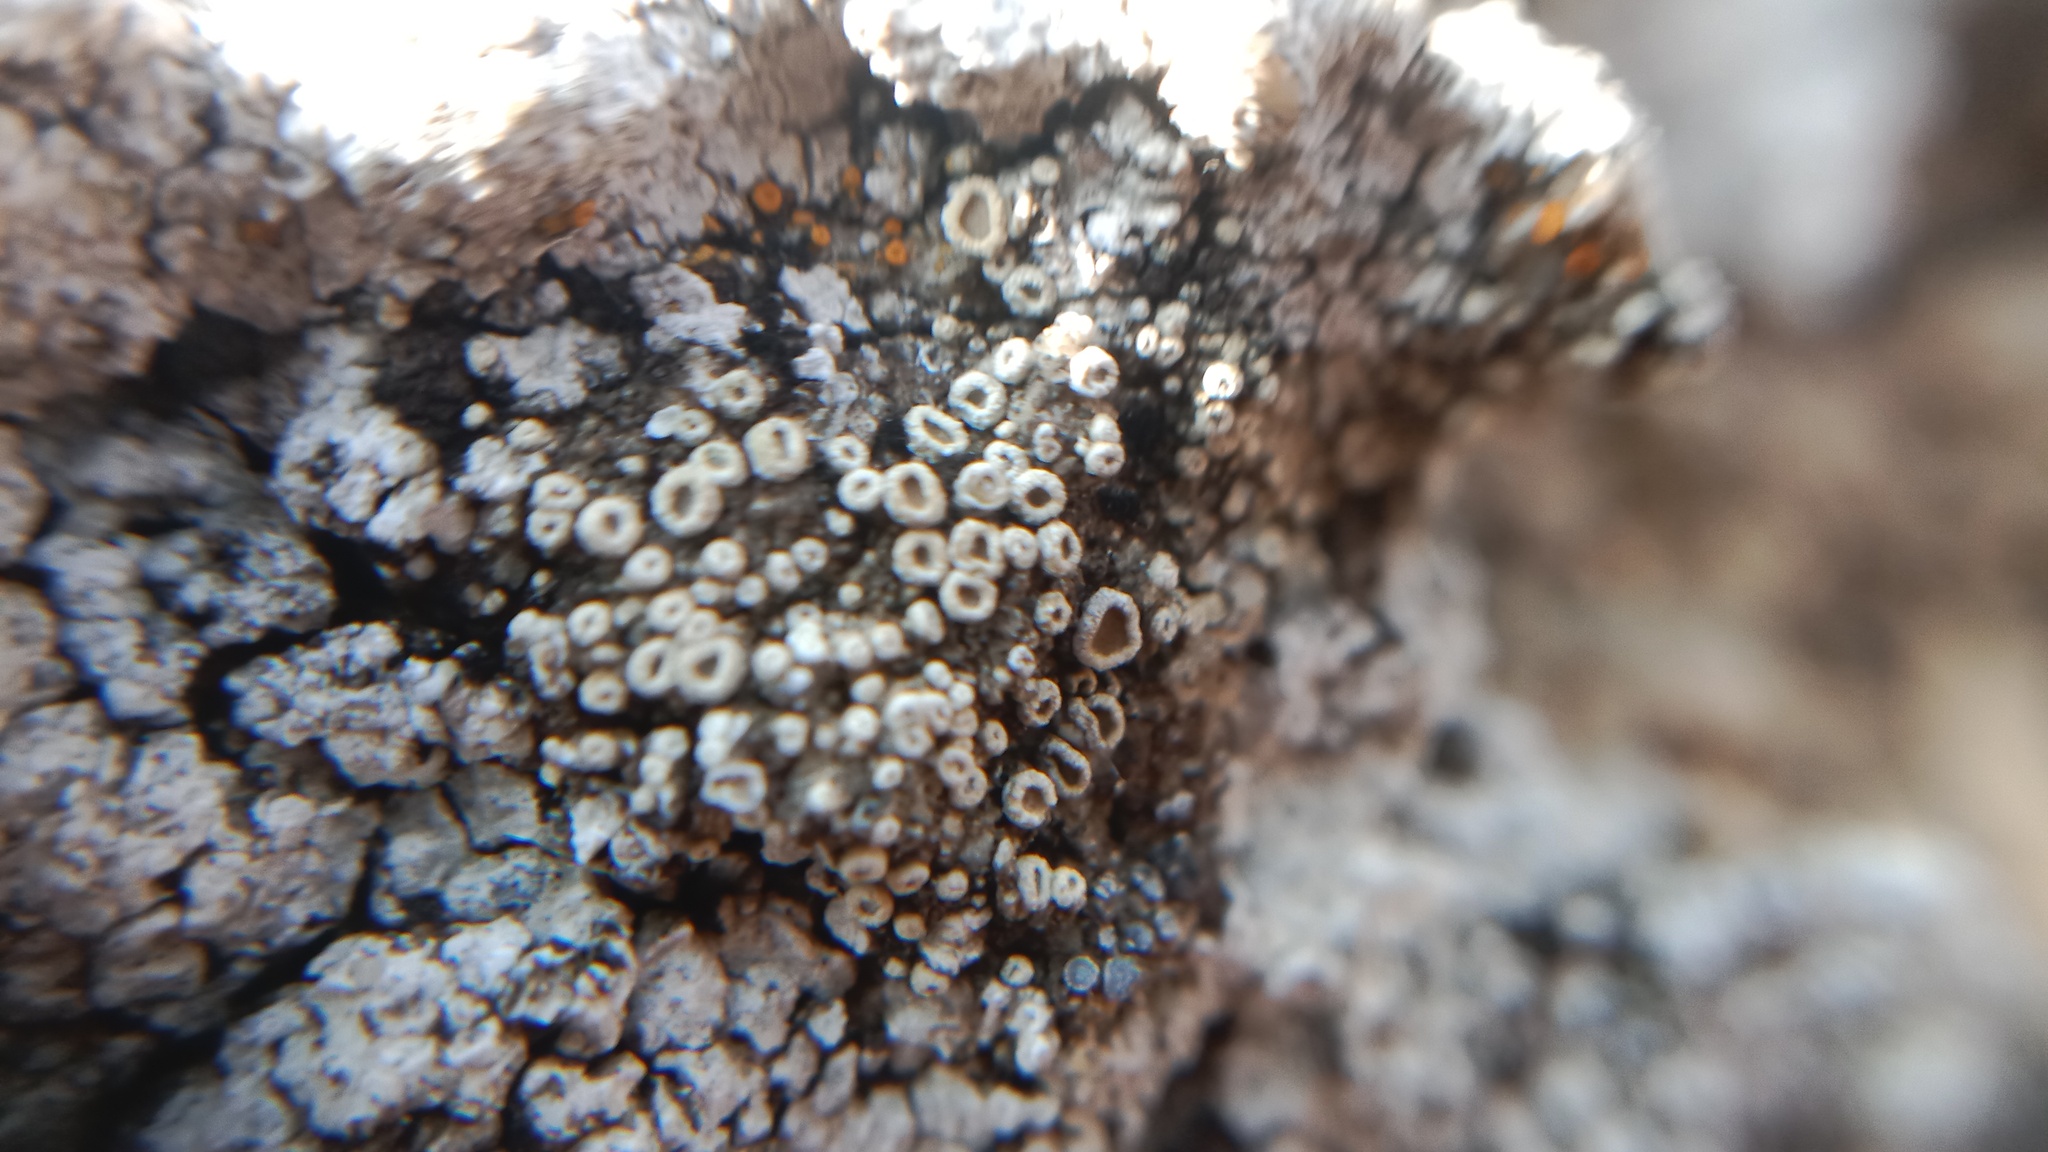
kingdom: Fungi
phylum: Ascomycota
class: Lecanoromycetes
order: Lecanorales
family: Lecanoraceae
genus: Polyozosia
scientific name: Polyozosia semipallida
